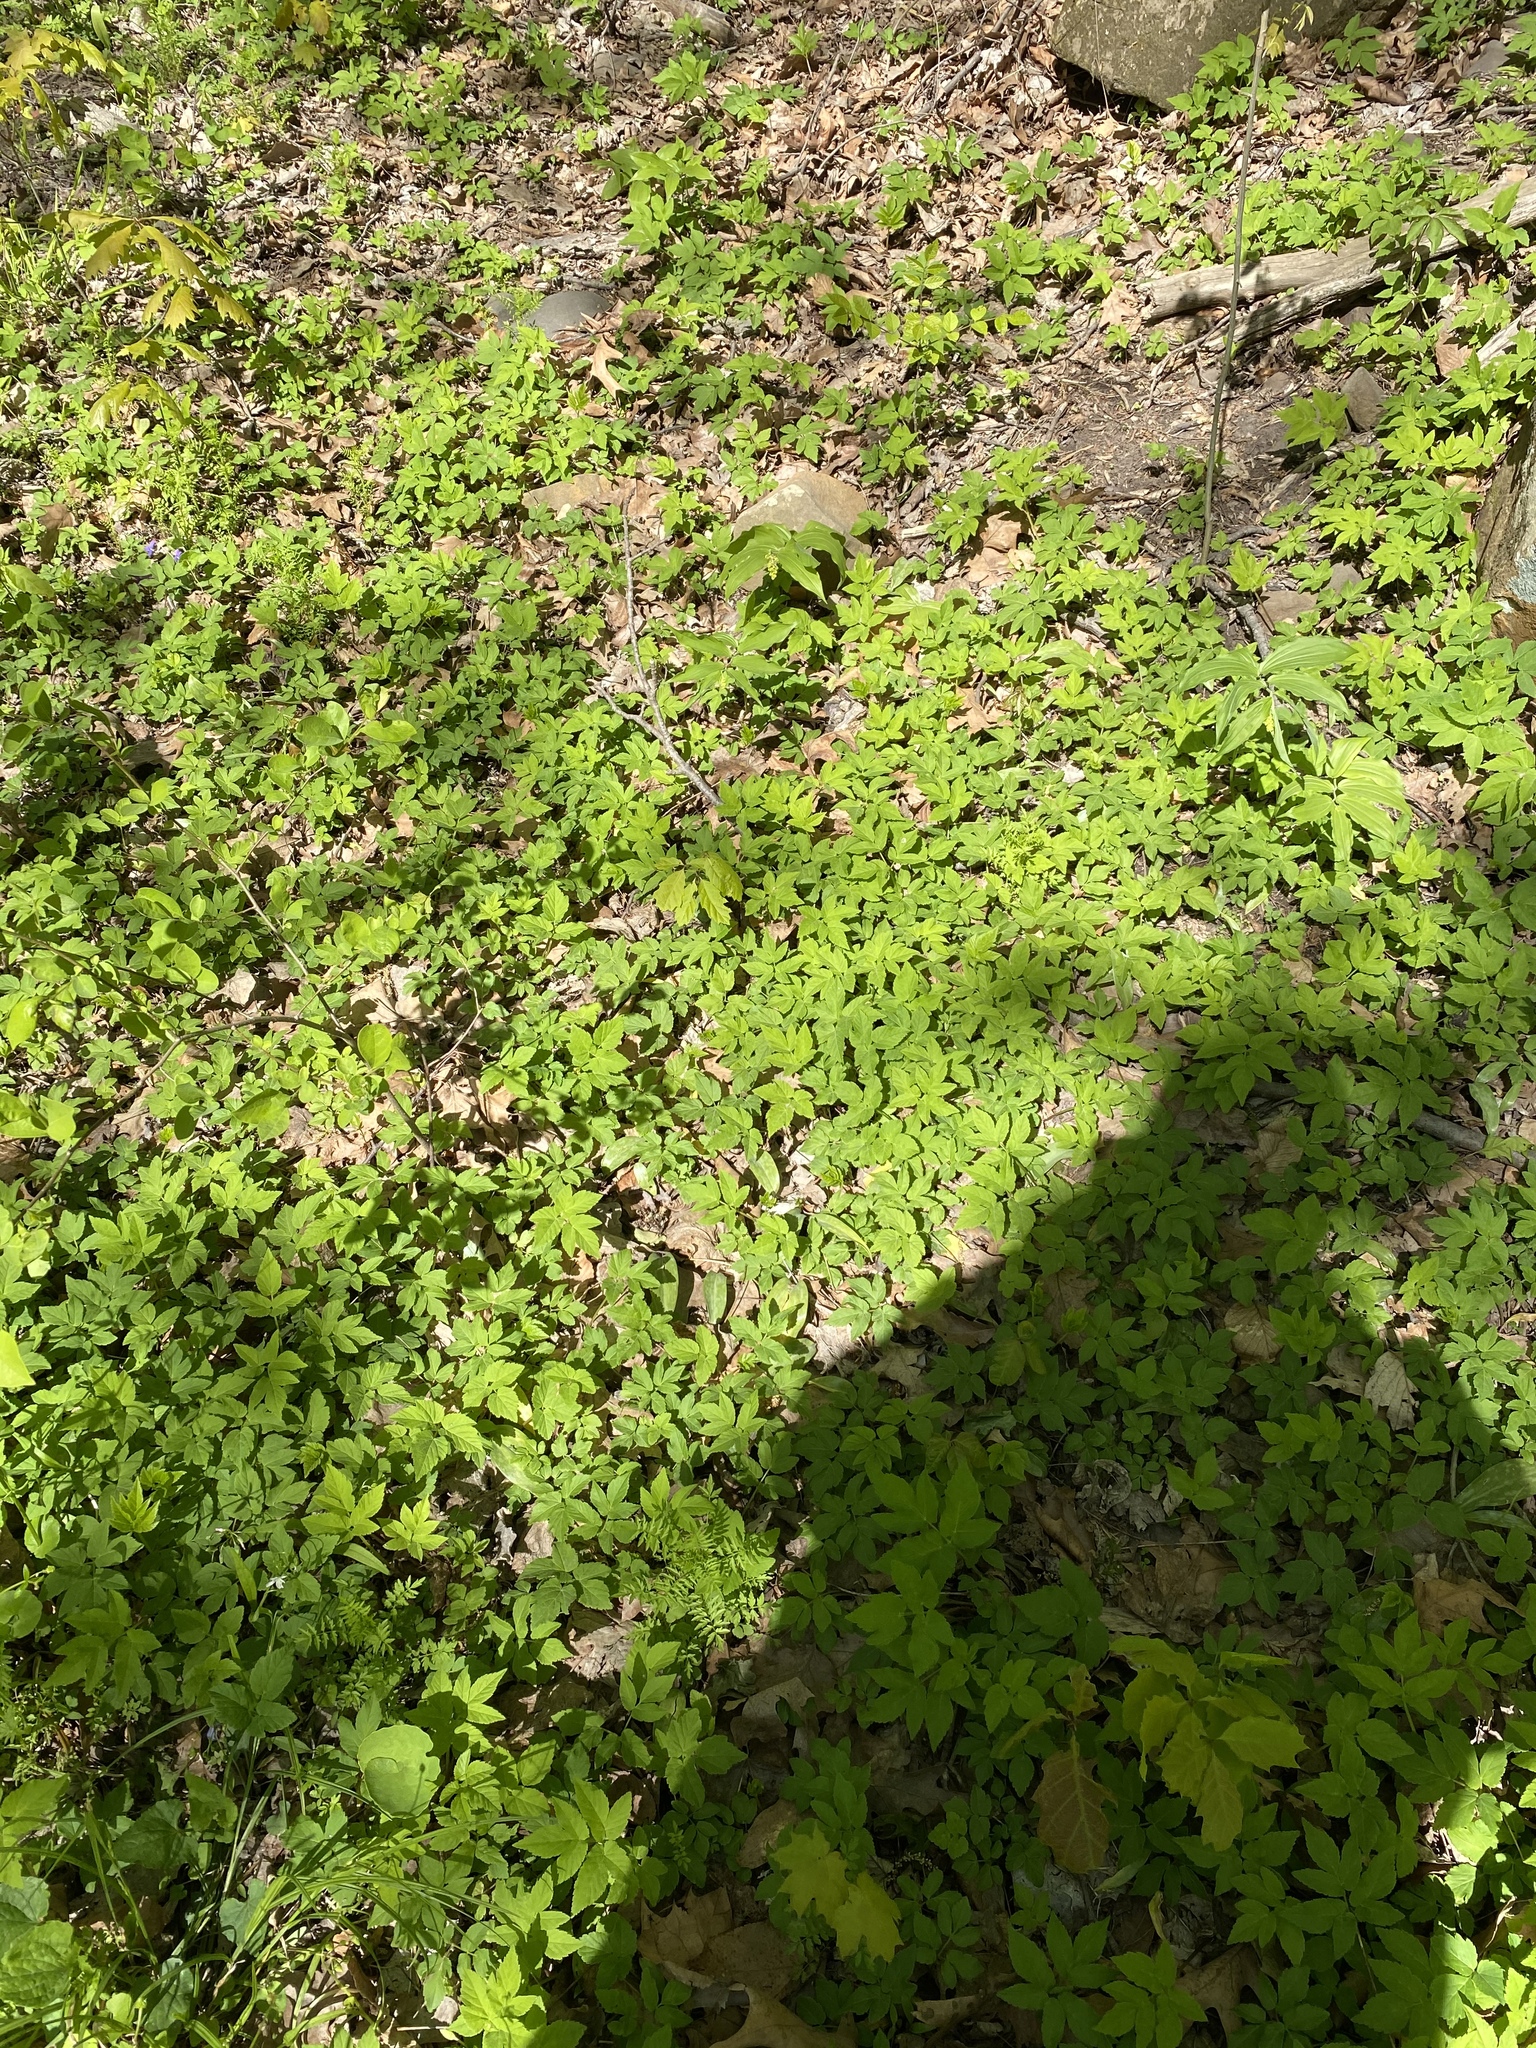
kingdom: Plantae
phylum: Tracheophyta
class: Magnoliopsida
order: Apiales
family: Apiaceae
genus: Aegopodium
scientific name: Aegopodium podagraria
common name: Ground-elder
